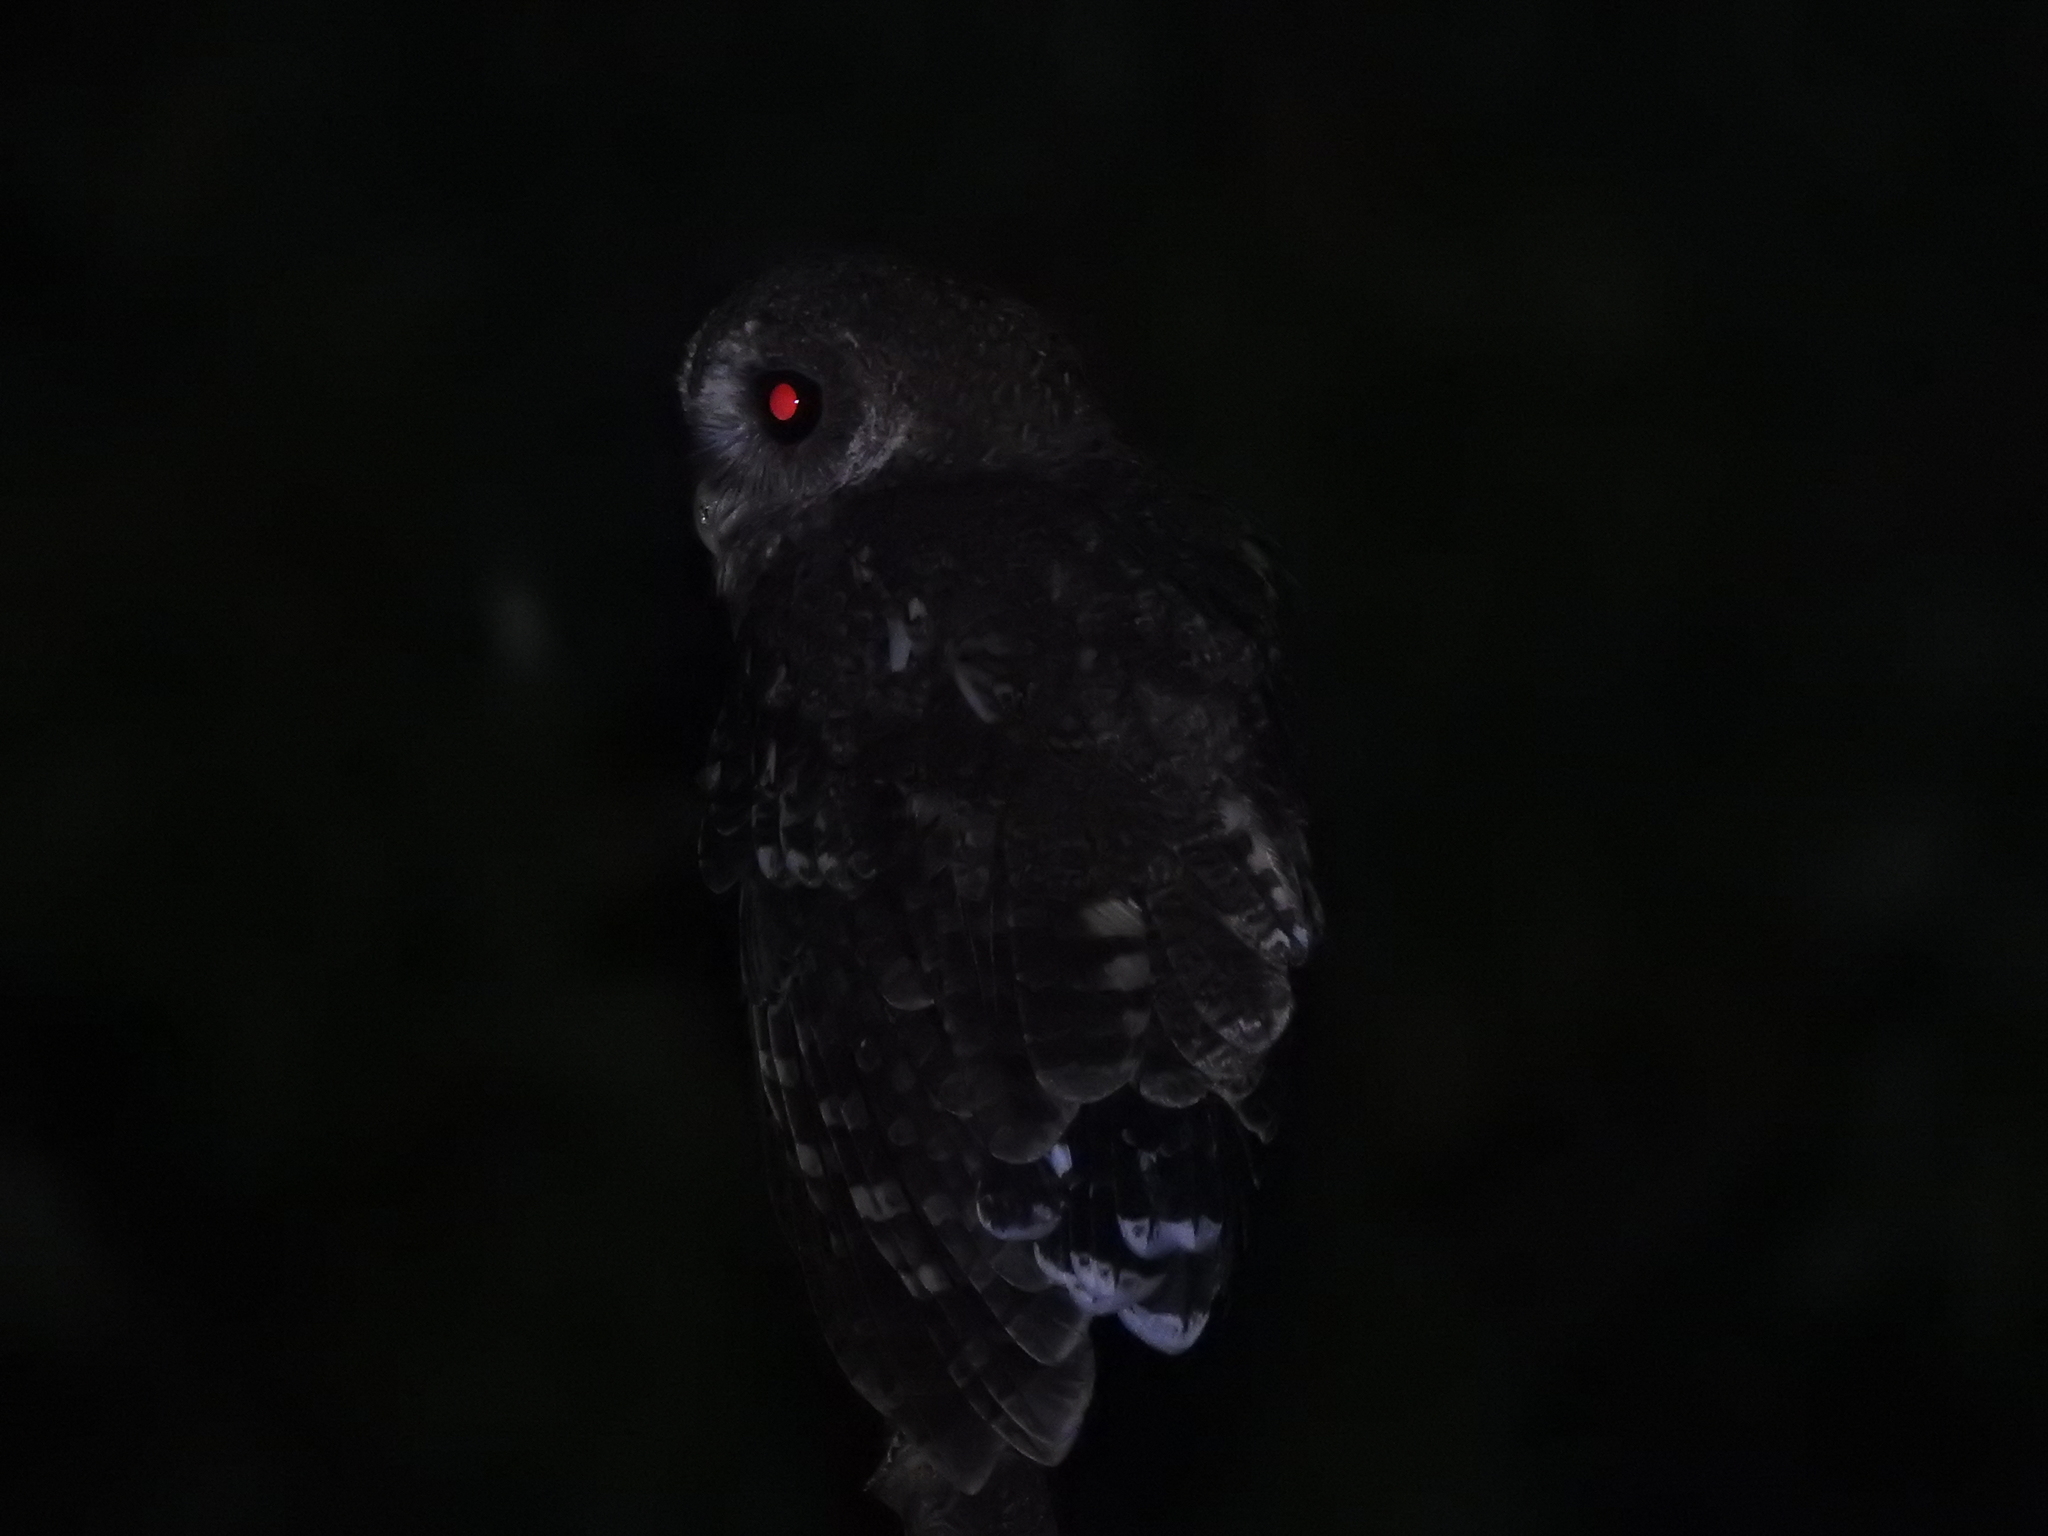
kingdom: Animalia
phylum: Chordata
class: Aves
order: Strigiformes
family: Strigidae
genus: Strix
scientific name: Strix virgata
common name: Mottled owl
